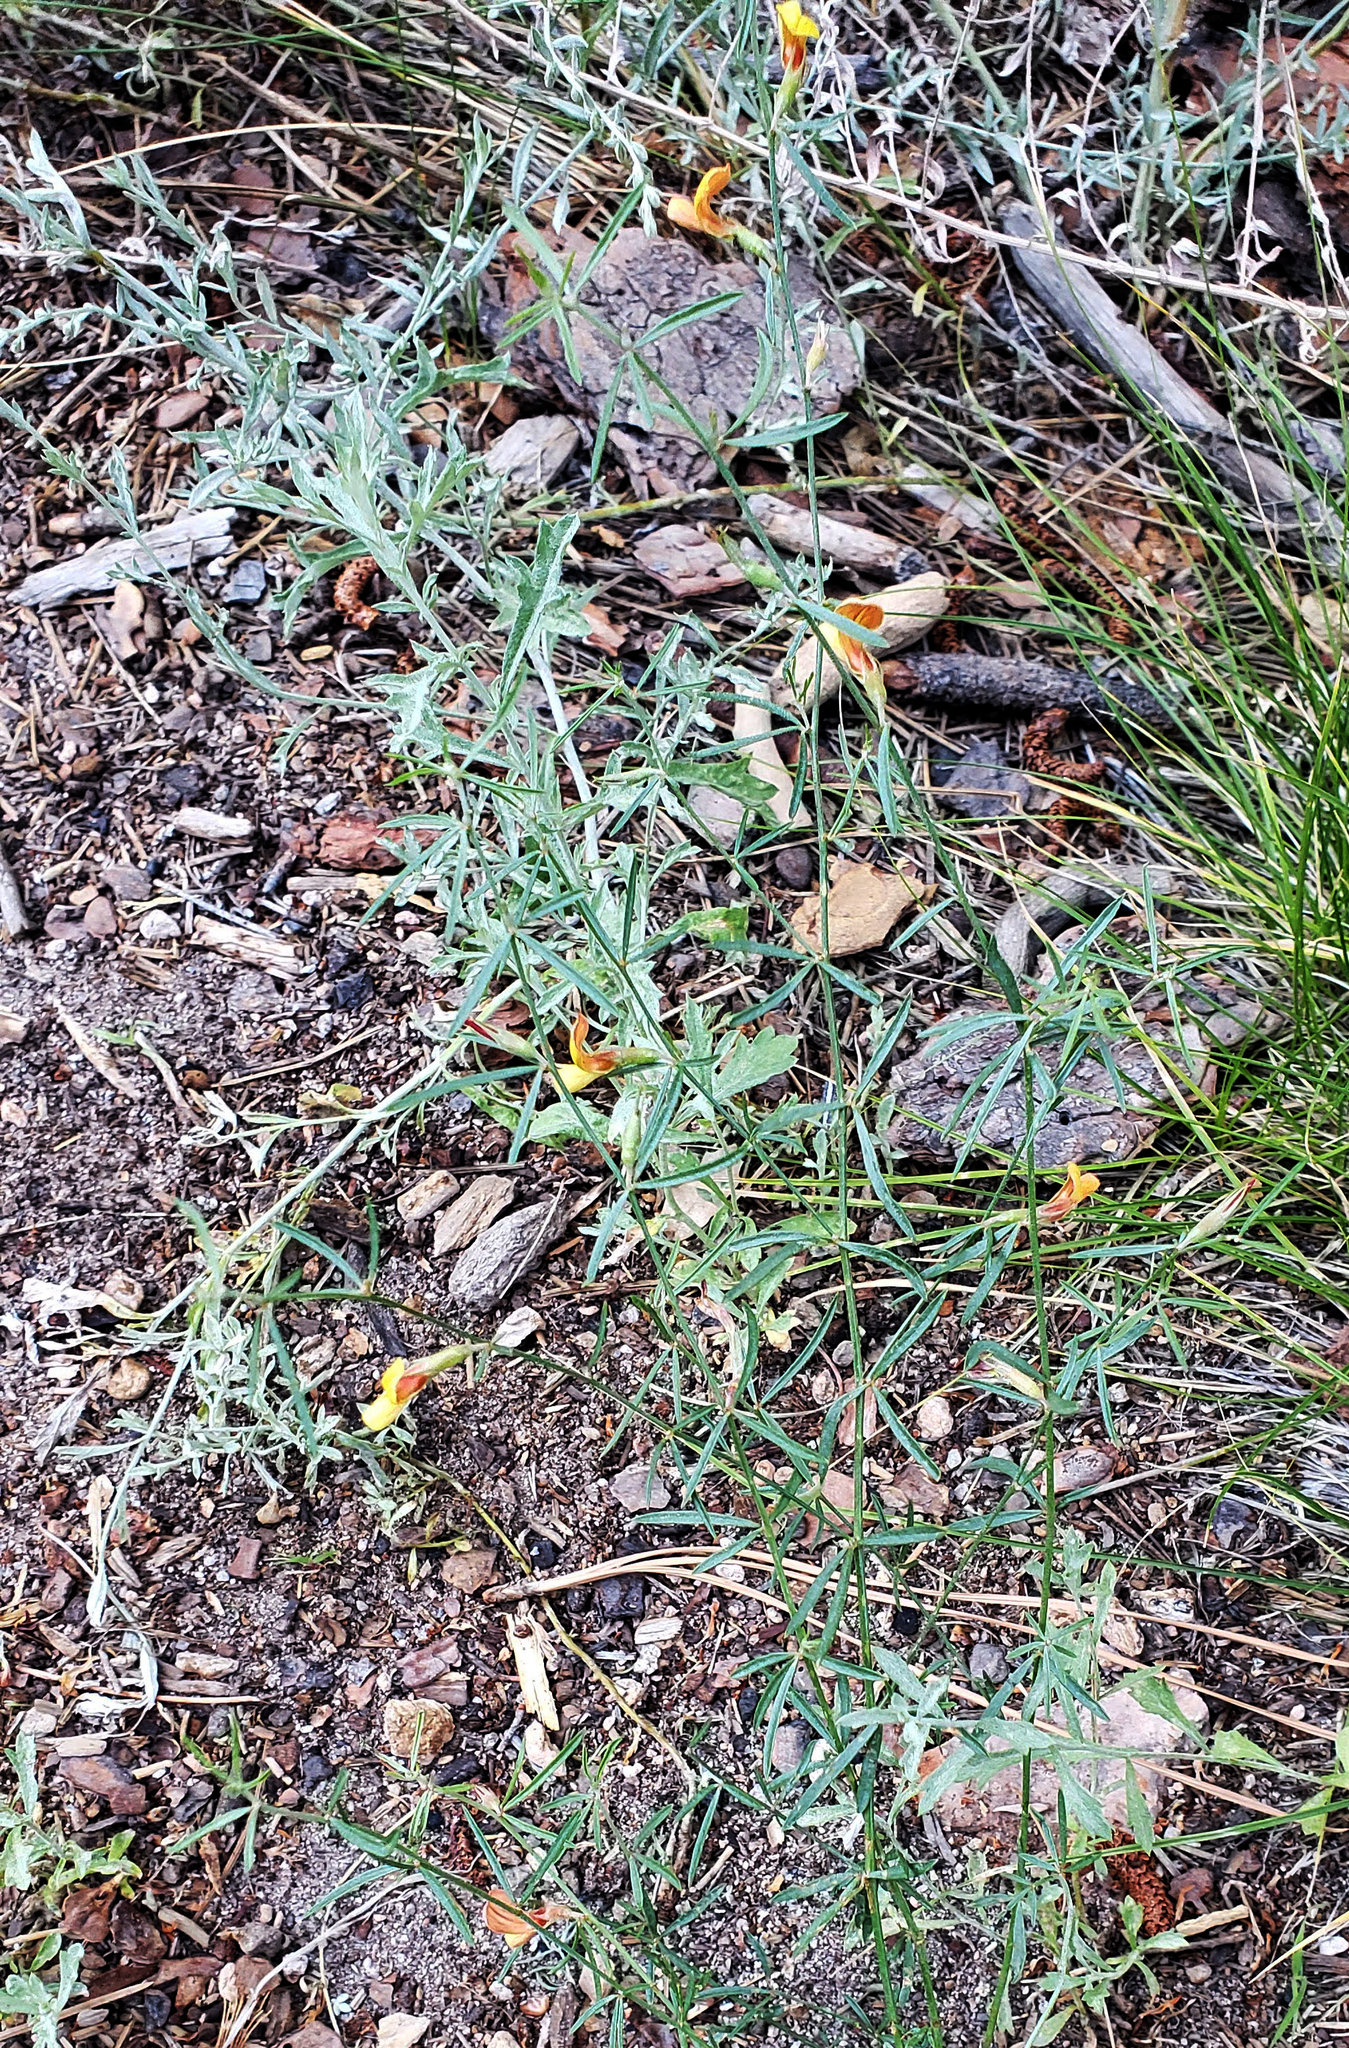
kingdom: Plantae
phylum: Tracheophyta
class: Magnoliopsida
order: Fabales
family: Fabaceae
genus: Acmispon
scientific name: Acmispon wrightii
